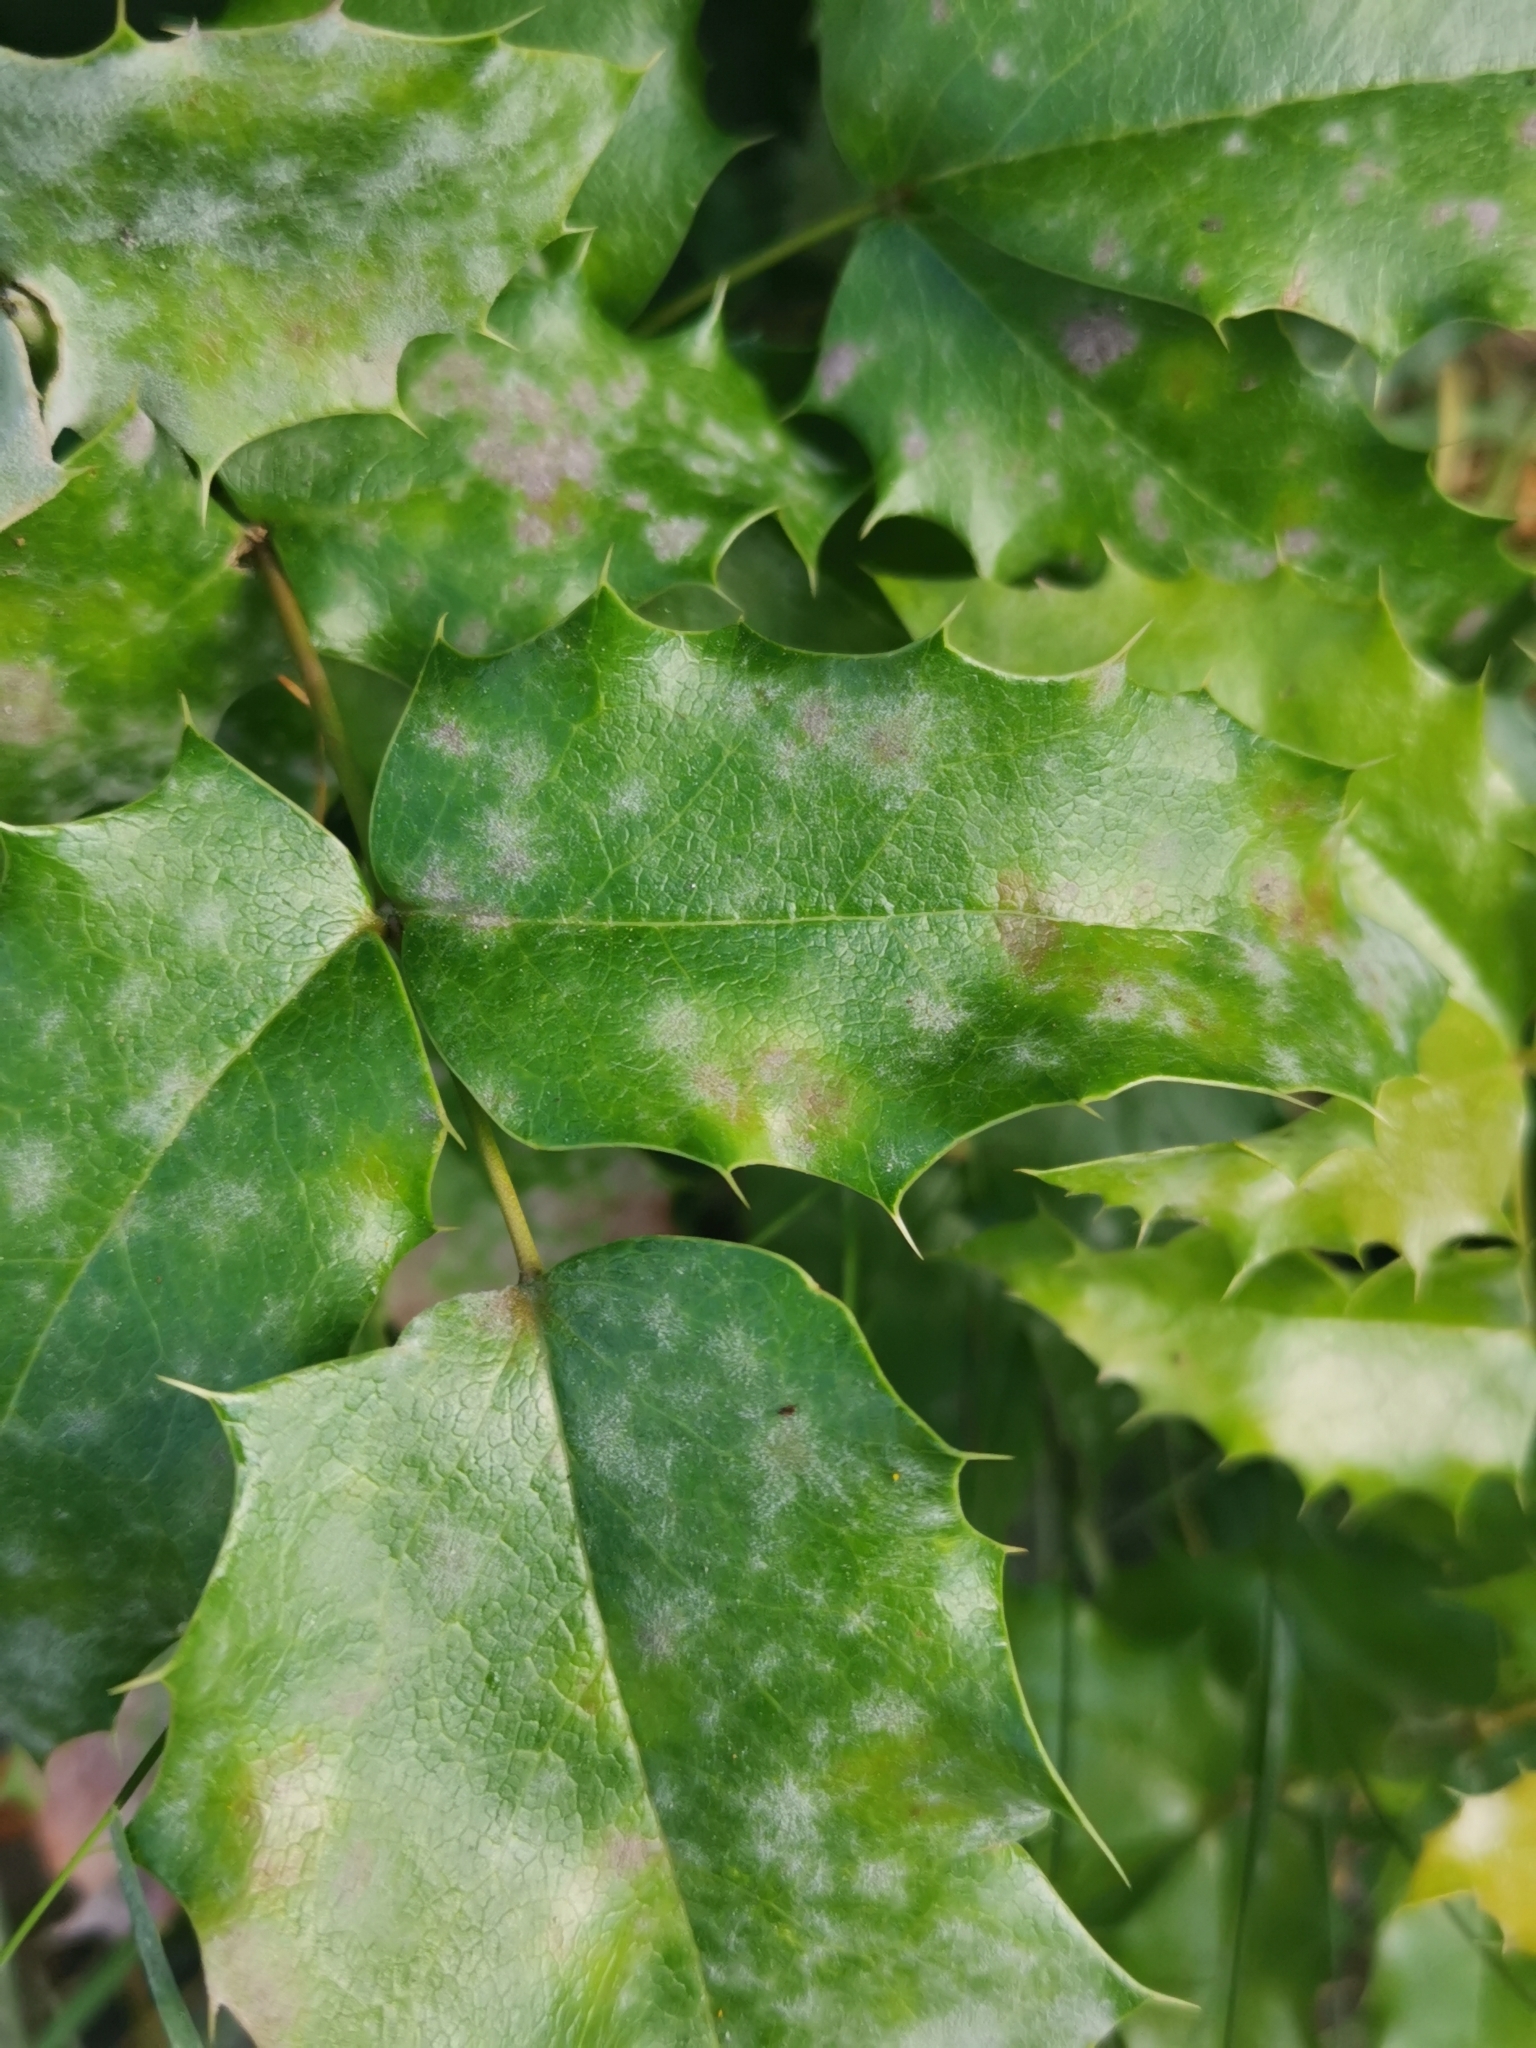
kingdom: Fungi
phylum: Ascomycota
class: Leotiomycetes
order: Helotiales
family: Erysiphaceae
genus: Erysiphe
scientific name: Erysiphe berberidis
